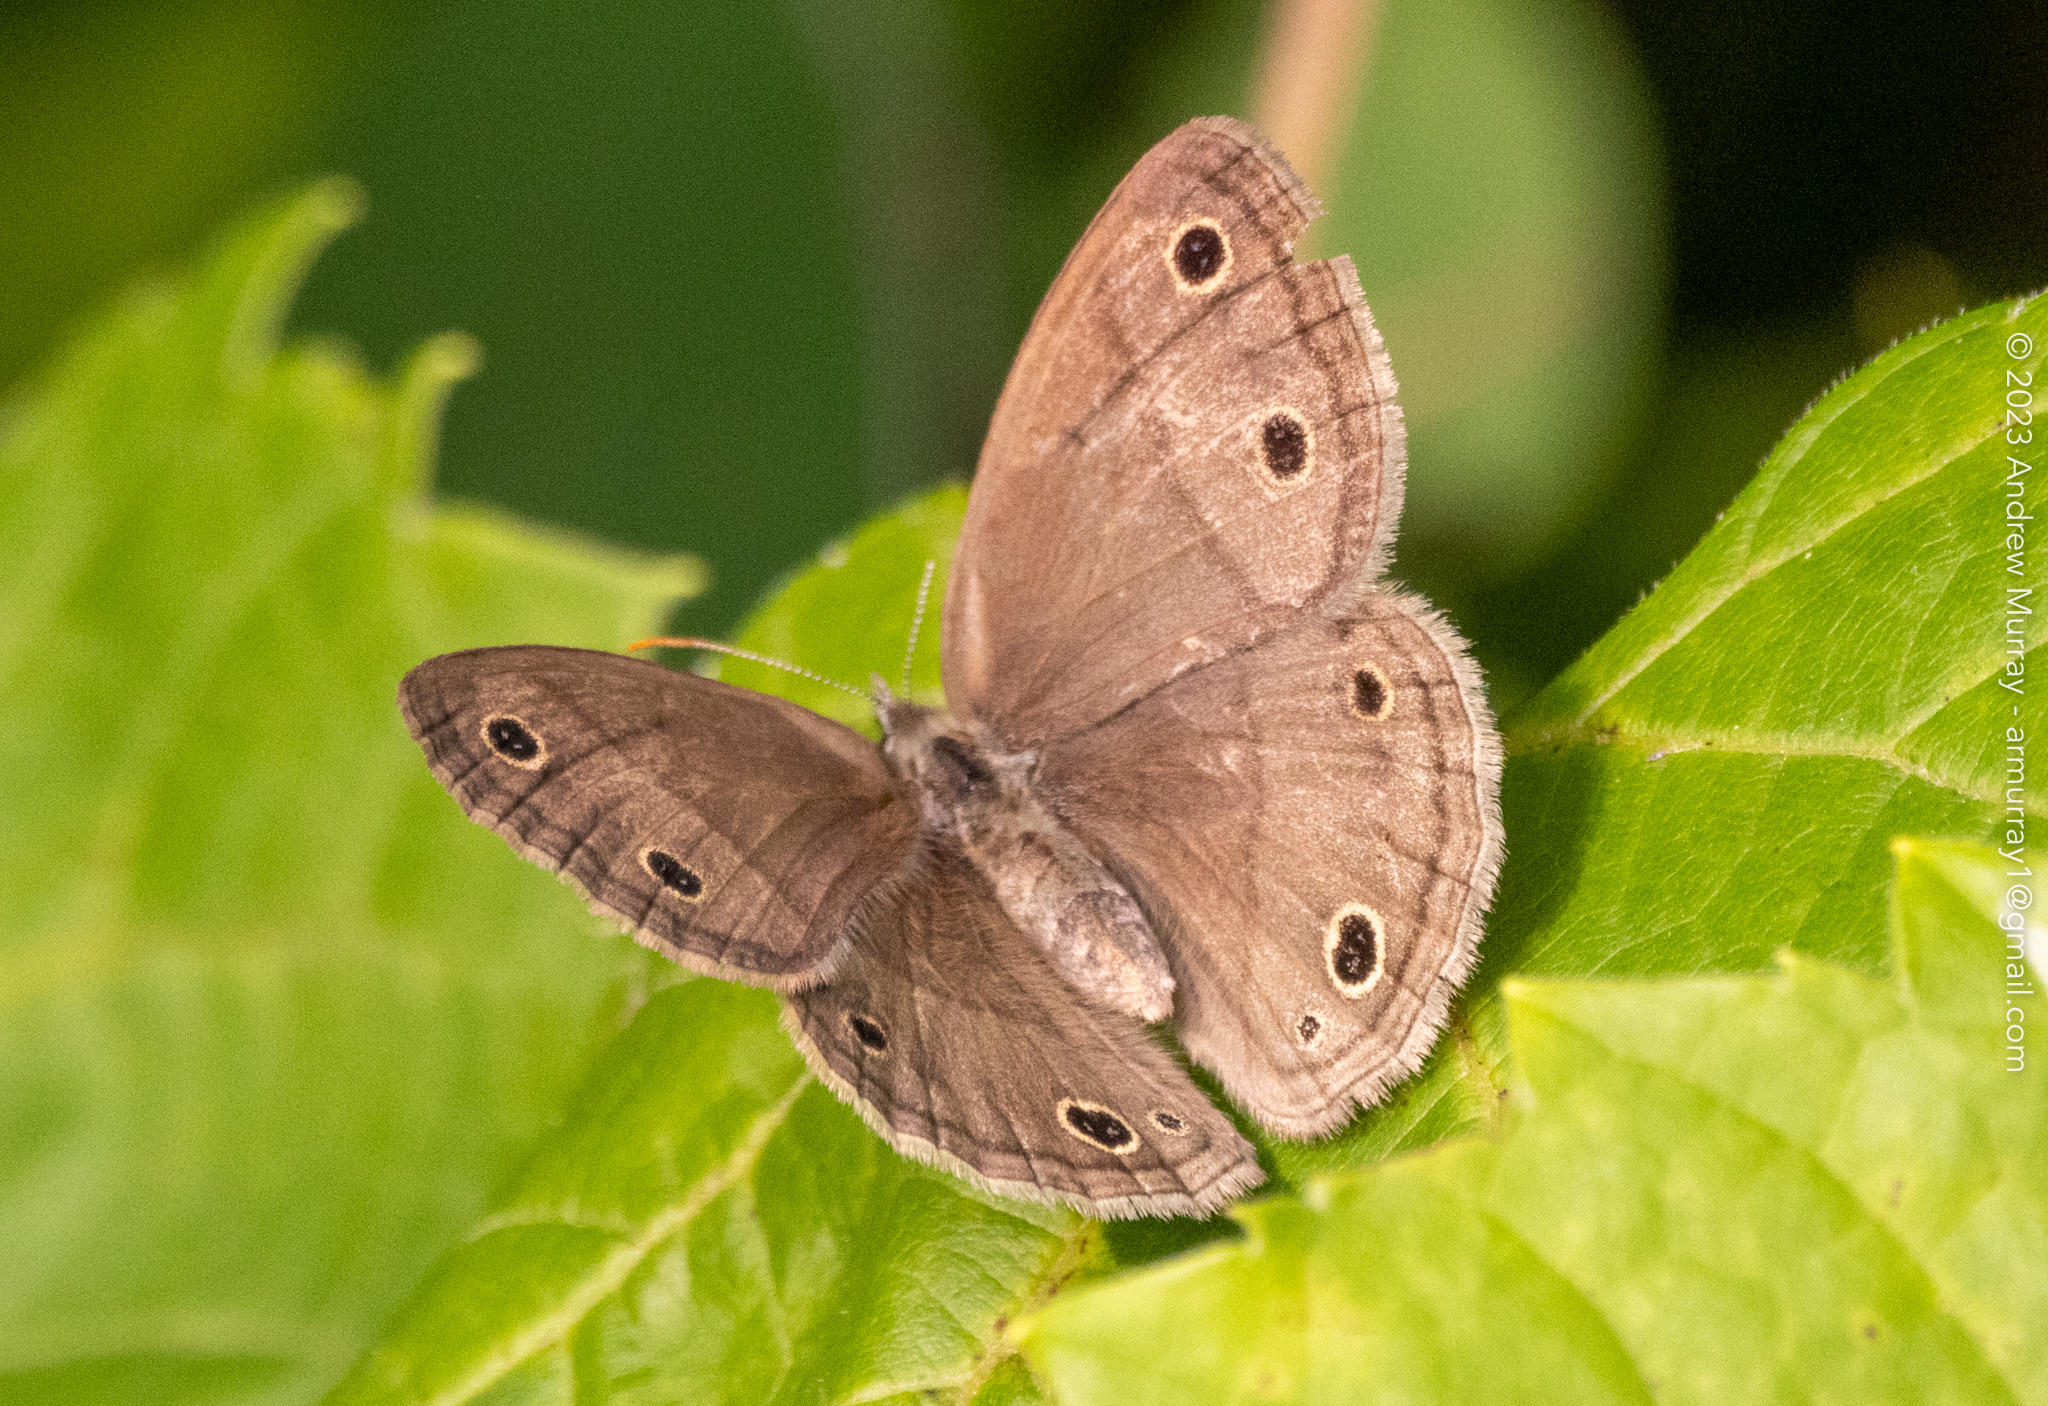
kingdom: Animalia
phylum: Arthropoda
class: Insecta
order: Lepidoptera
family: Nymphalidae
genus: Euptychia
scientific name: Euptychia cymela
